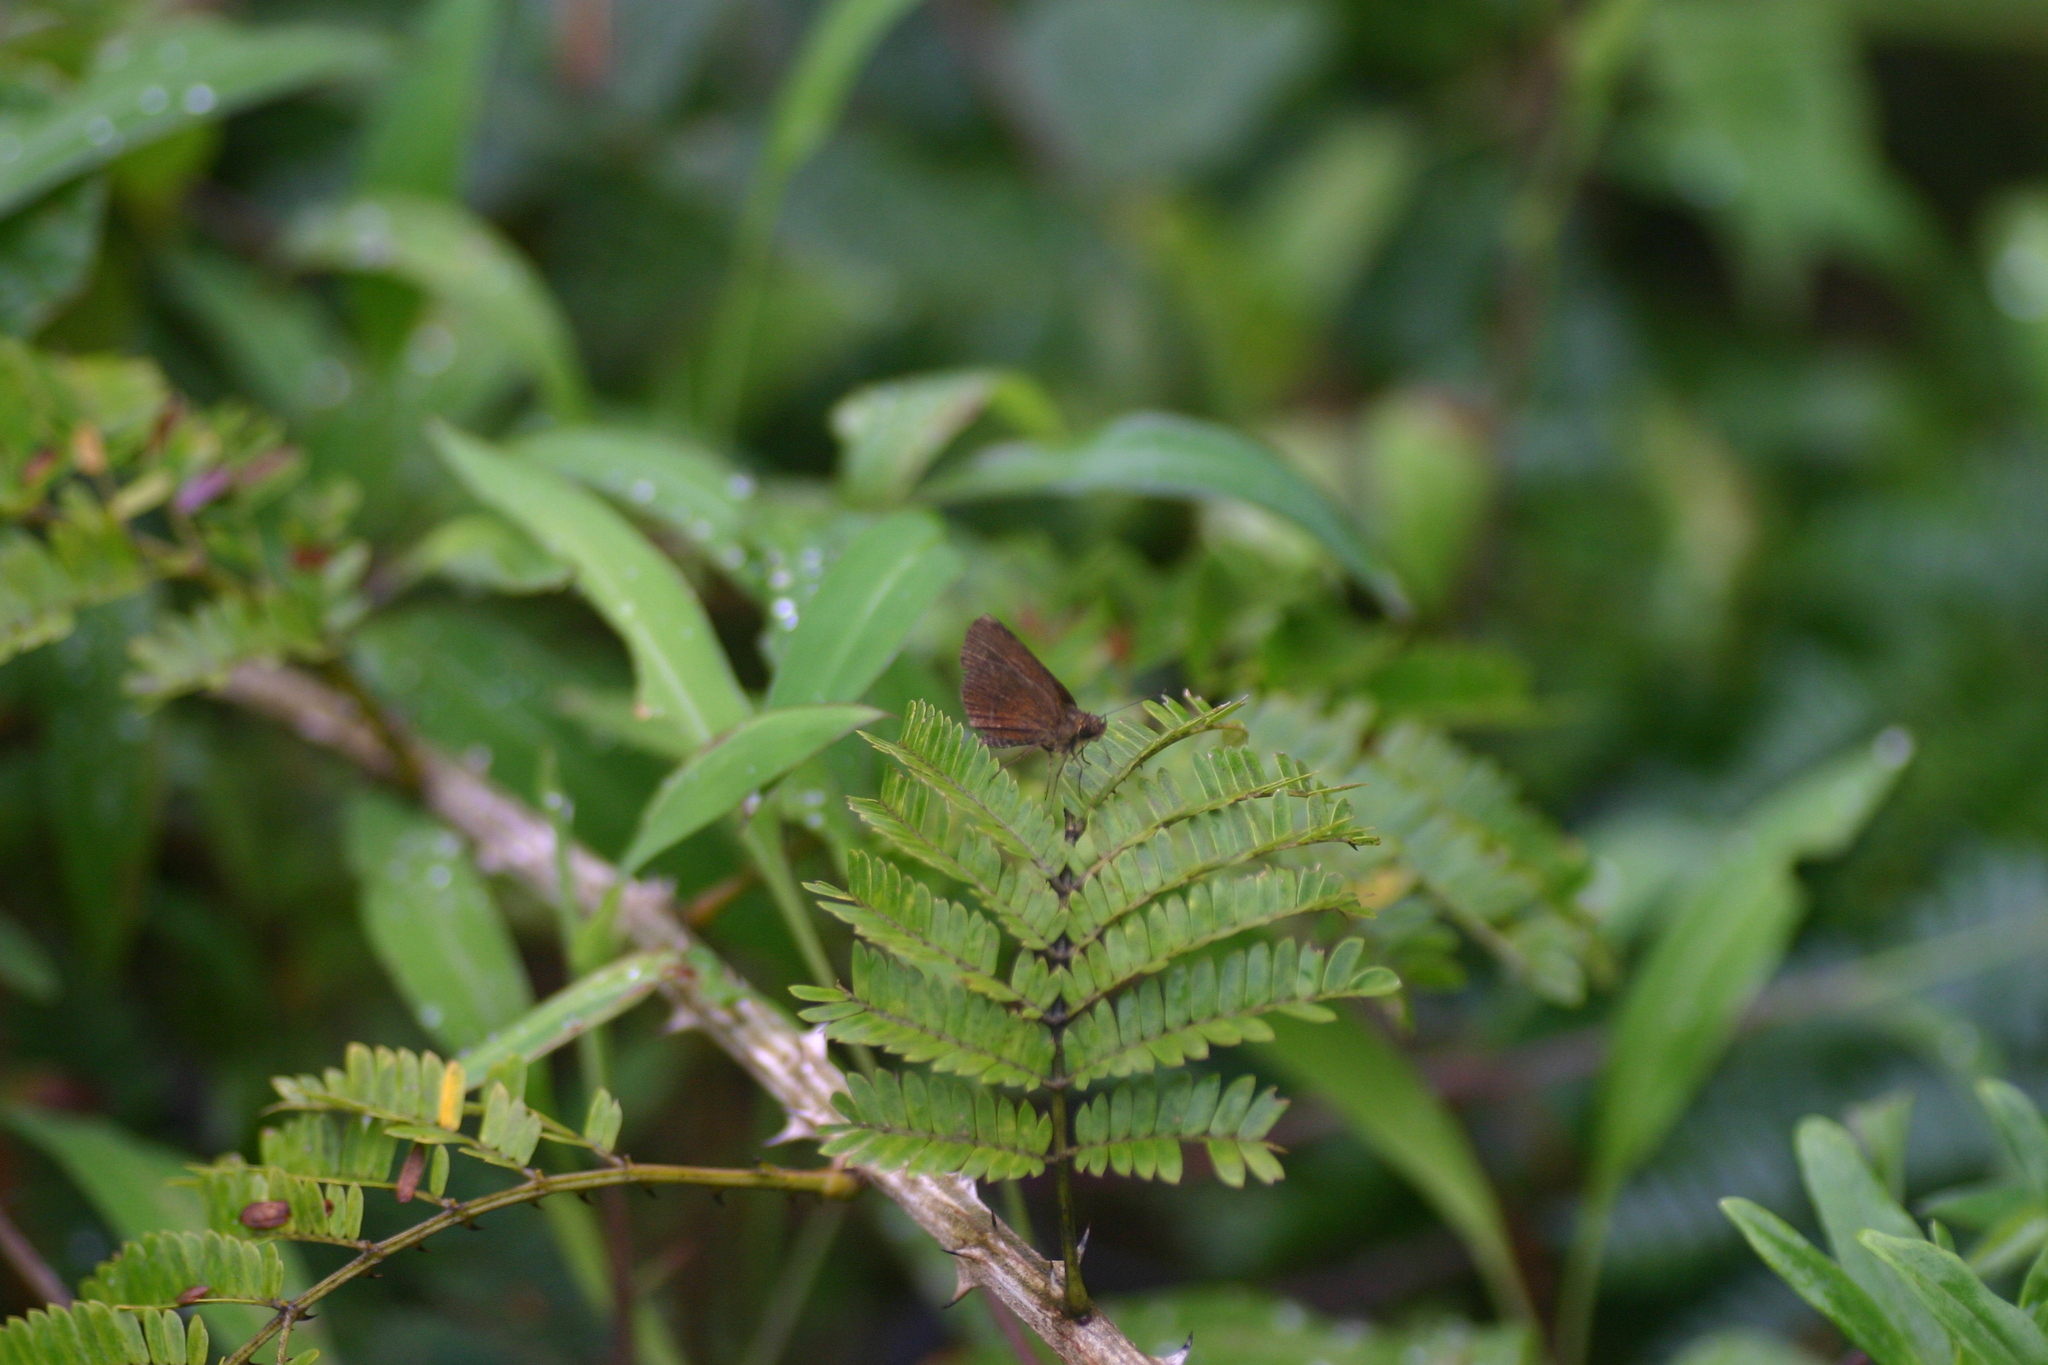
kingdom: Animalia
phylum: Arthropoda
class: Insecta
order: Lepidoptera
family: Hesperiidae
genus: Iambrix
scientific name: Iambrix salsala
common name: Chestnut bob
